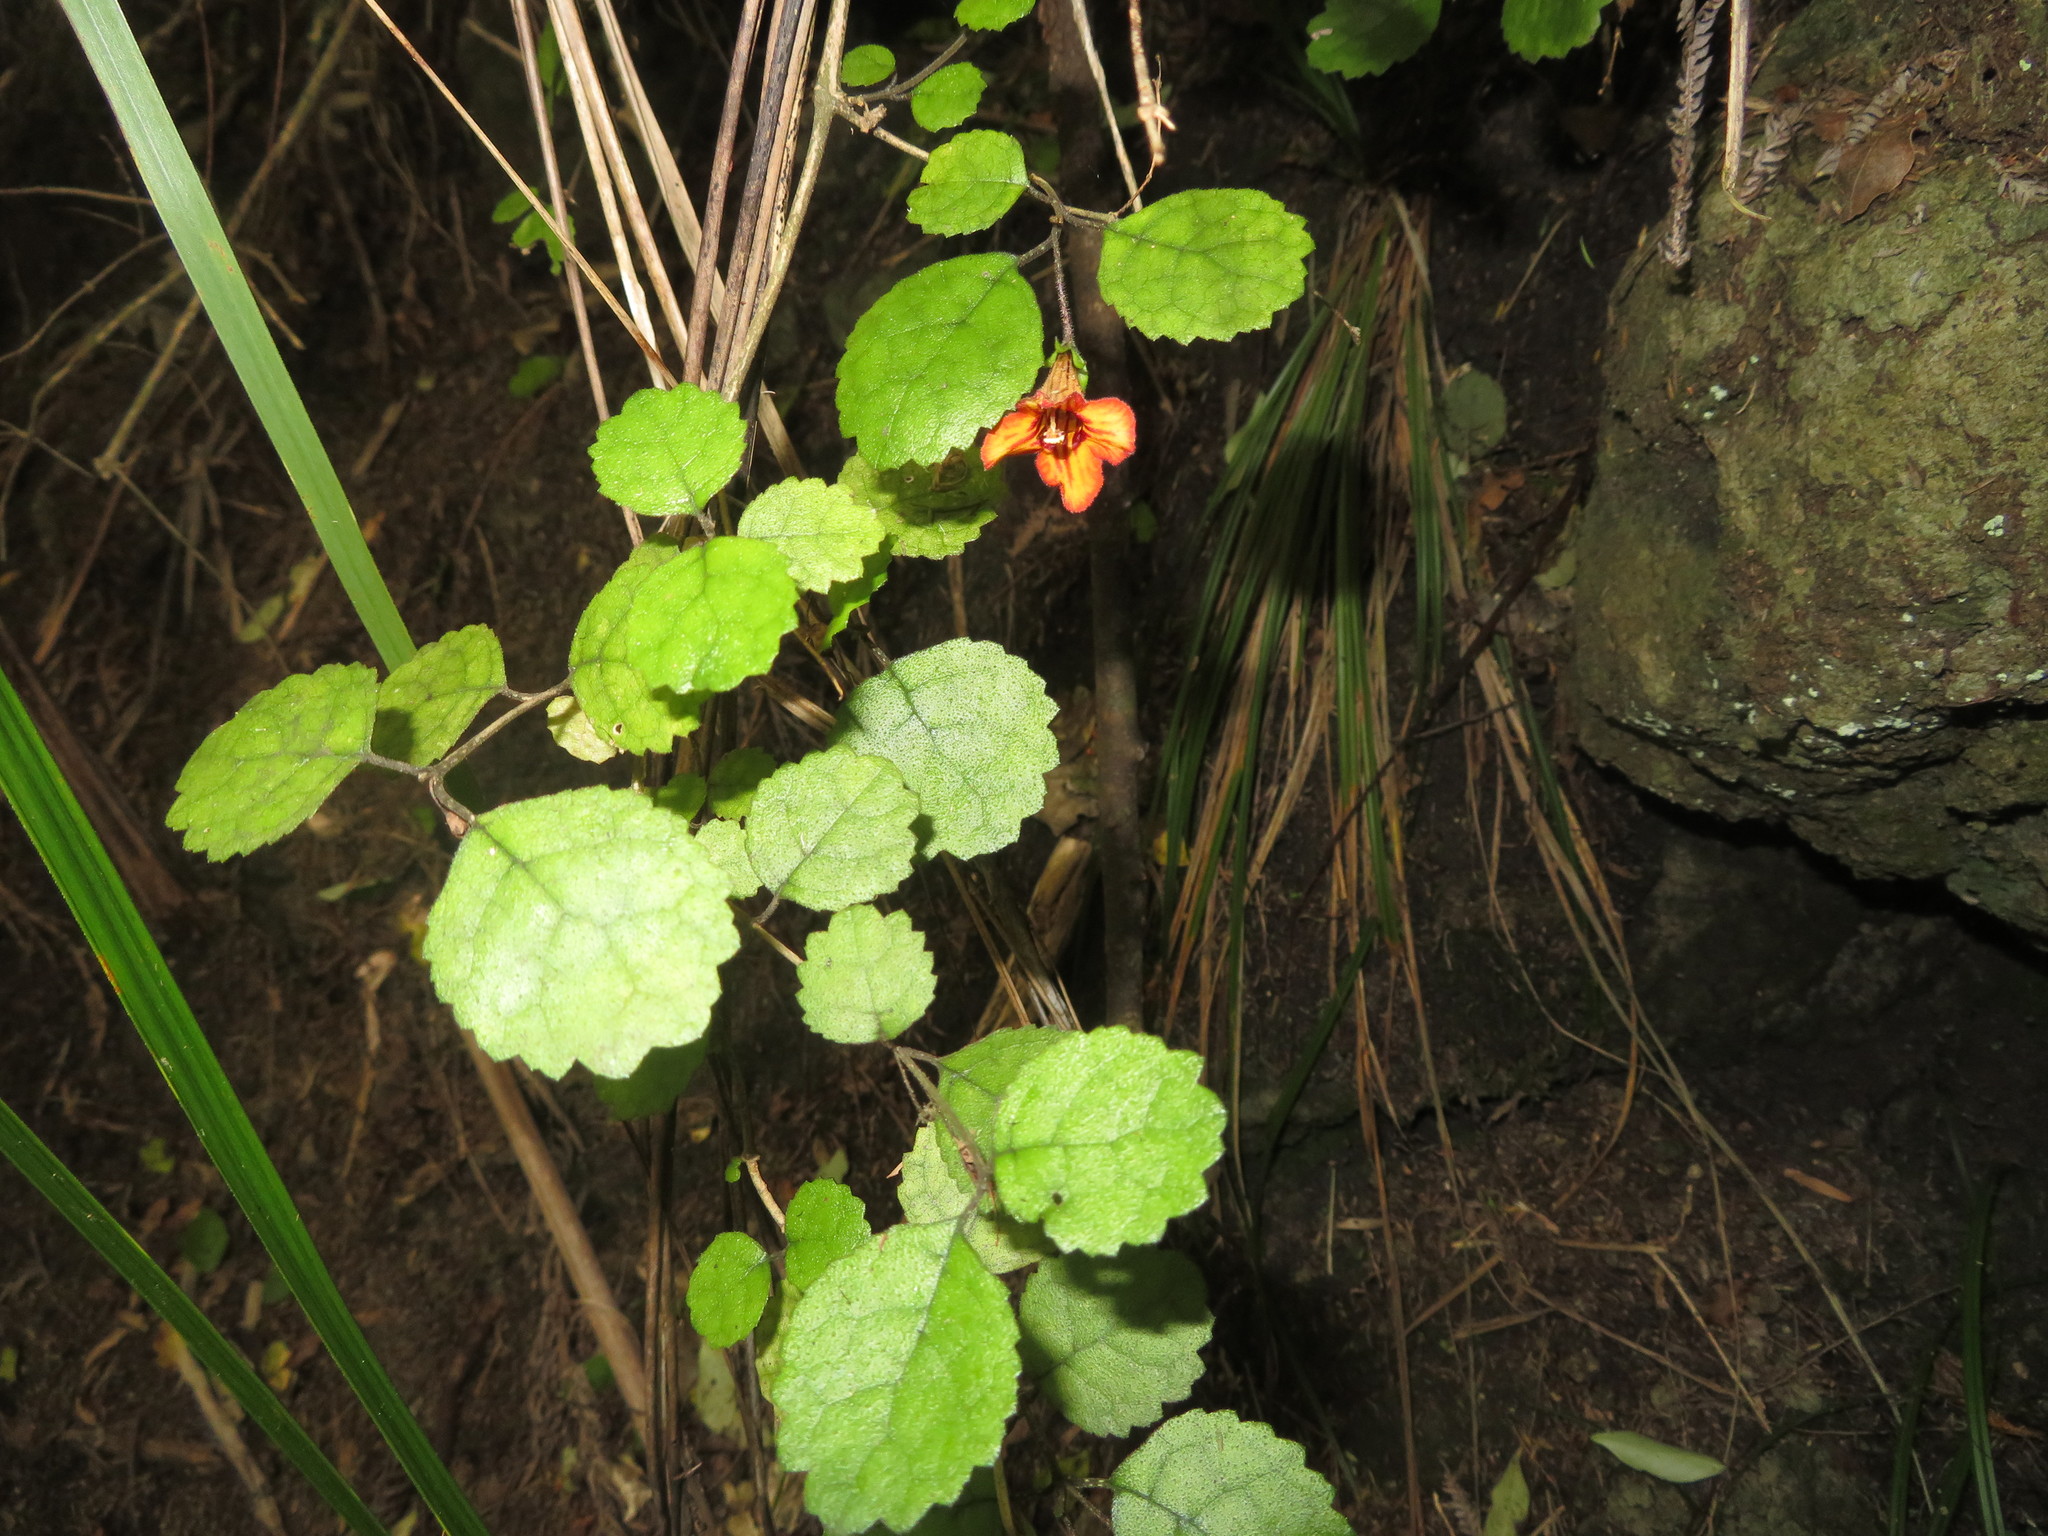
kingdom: Plantae
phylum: Tracheophyta
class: Magnoliopsida
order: Lamiales
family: Gesneriaceae
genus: Rhabdothamnus
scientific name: Rhabdothamnus solandri
